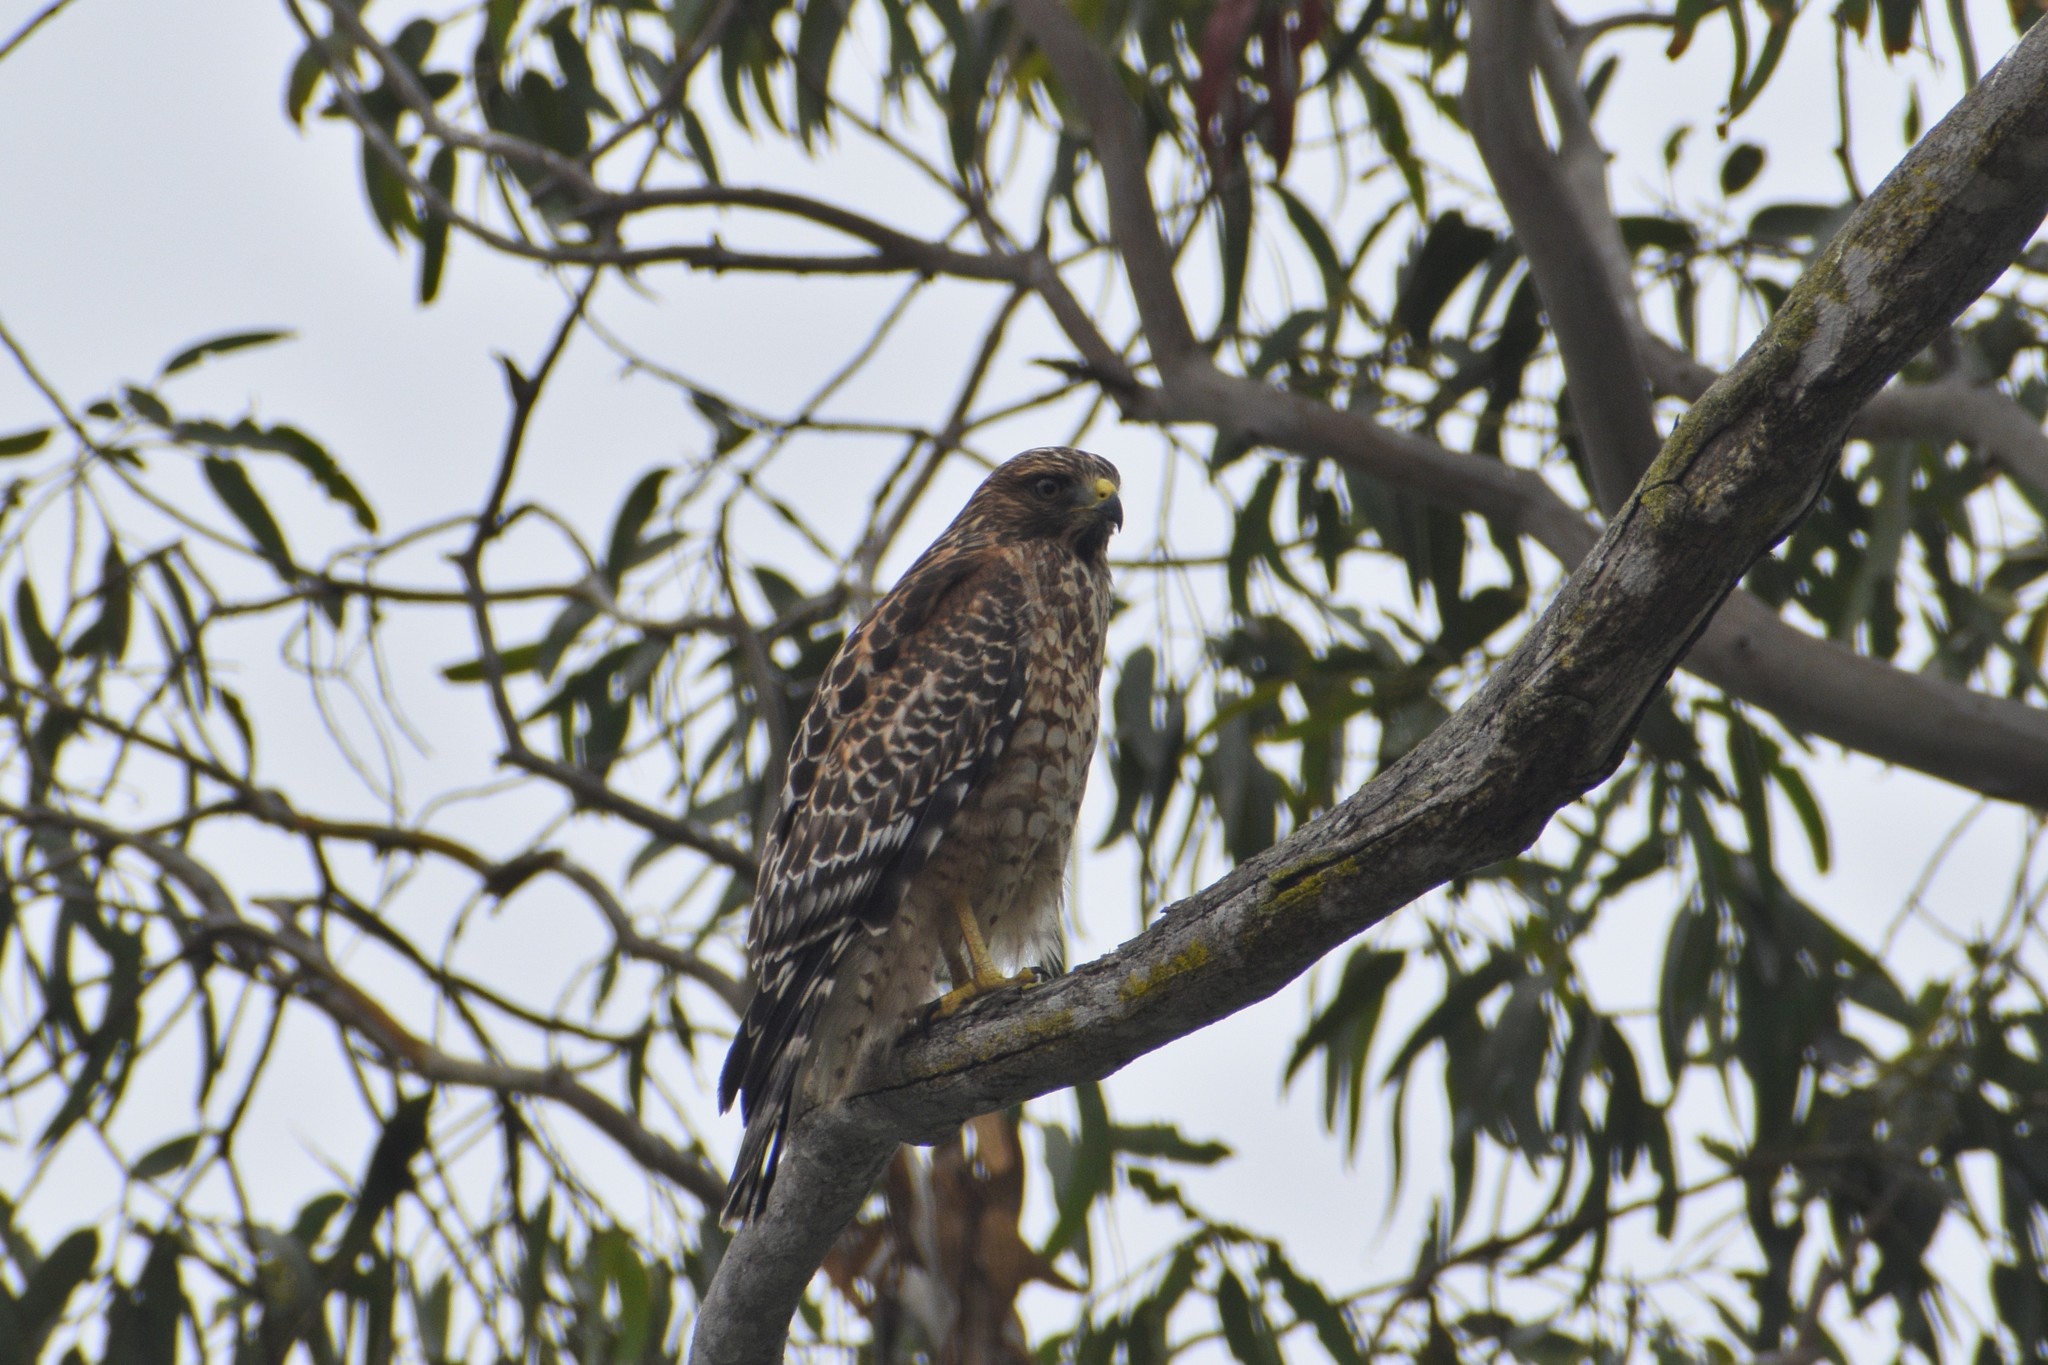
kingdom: Animalia
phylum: Chordata
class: Aves
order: Accipitriformes
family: Accipitridae
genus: Buteo
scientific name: Buteo lineatus
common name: Red-shouldered hawk
